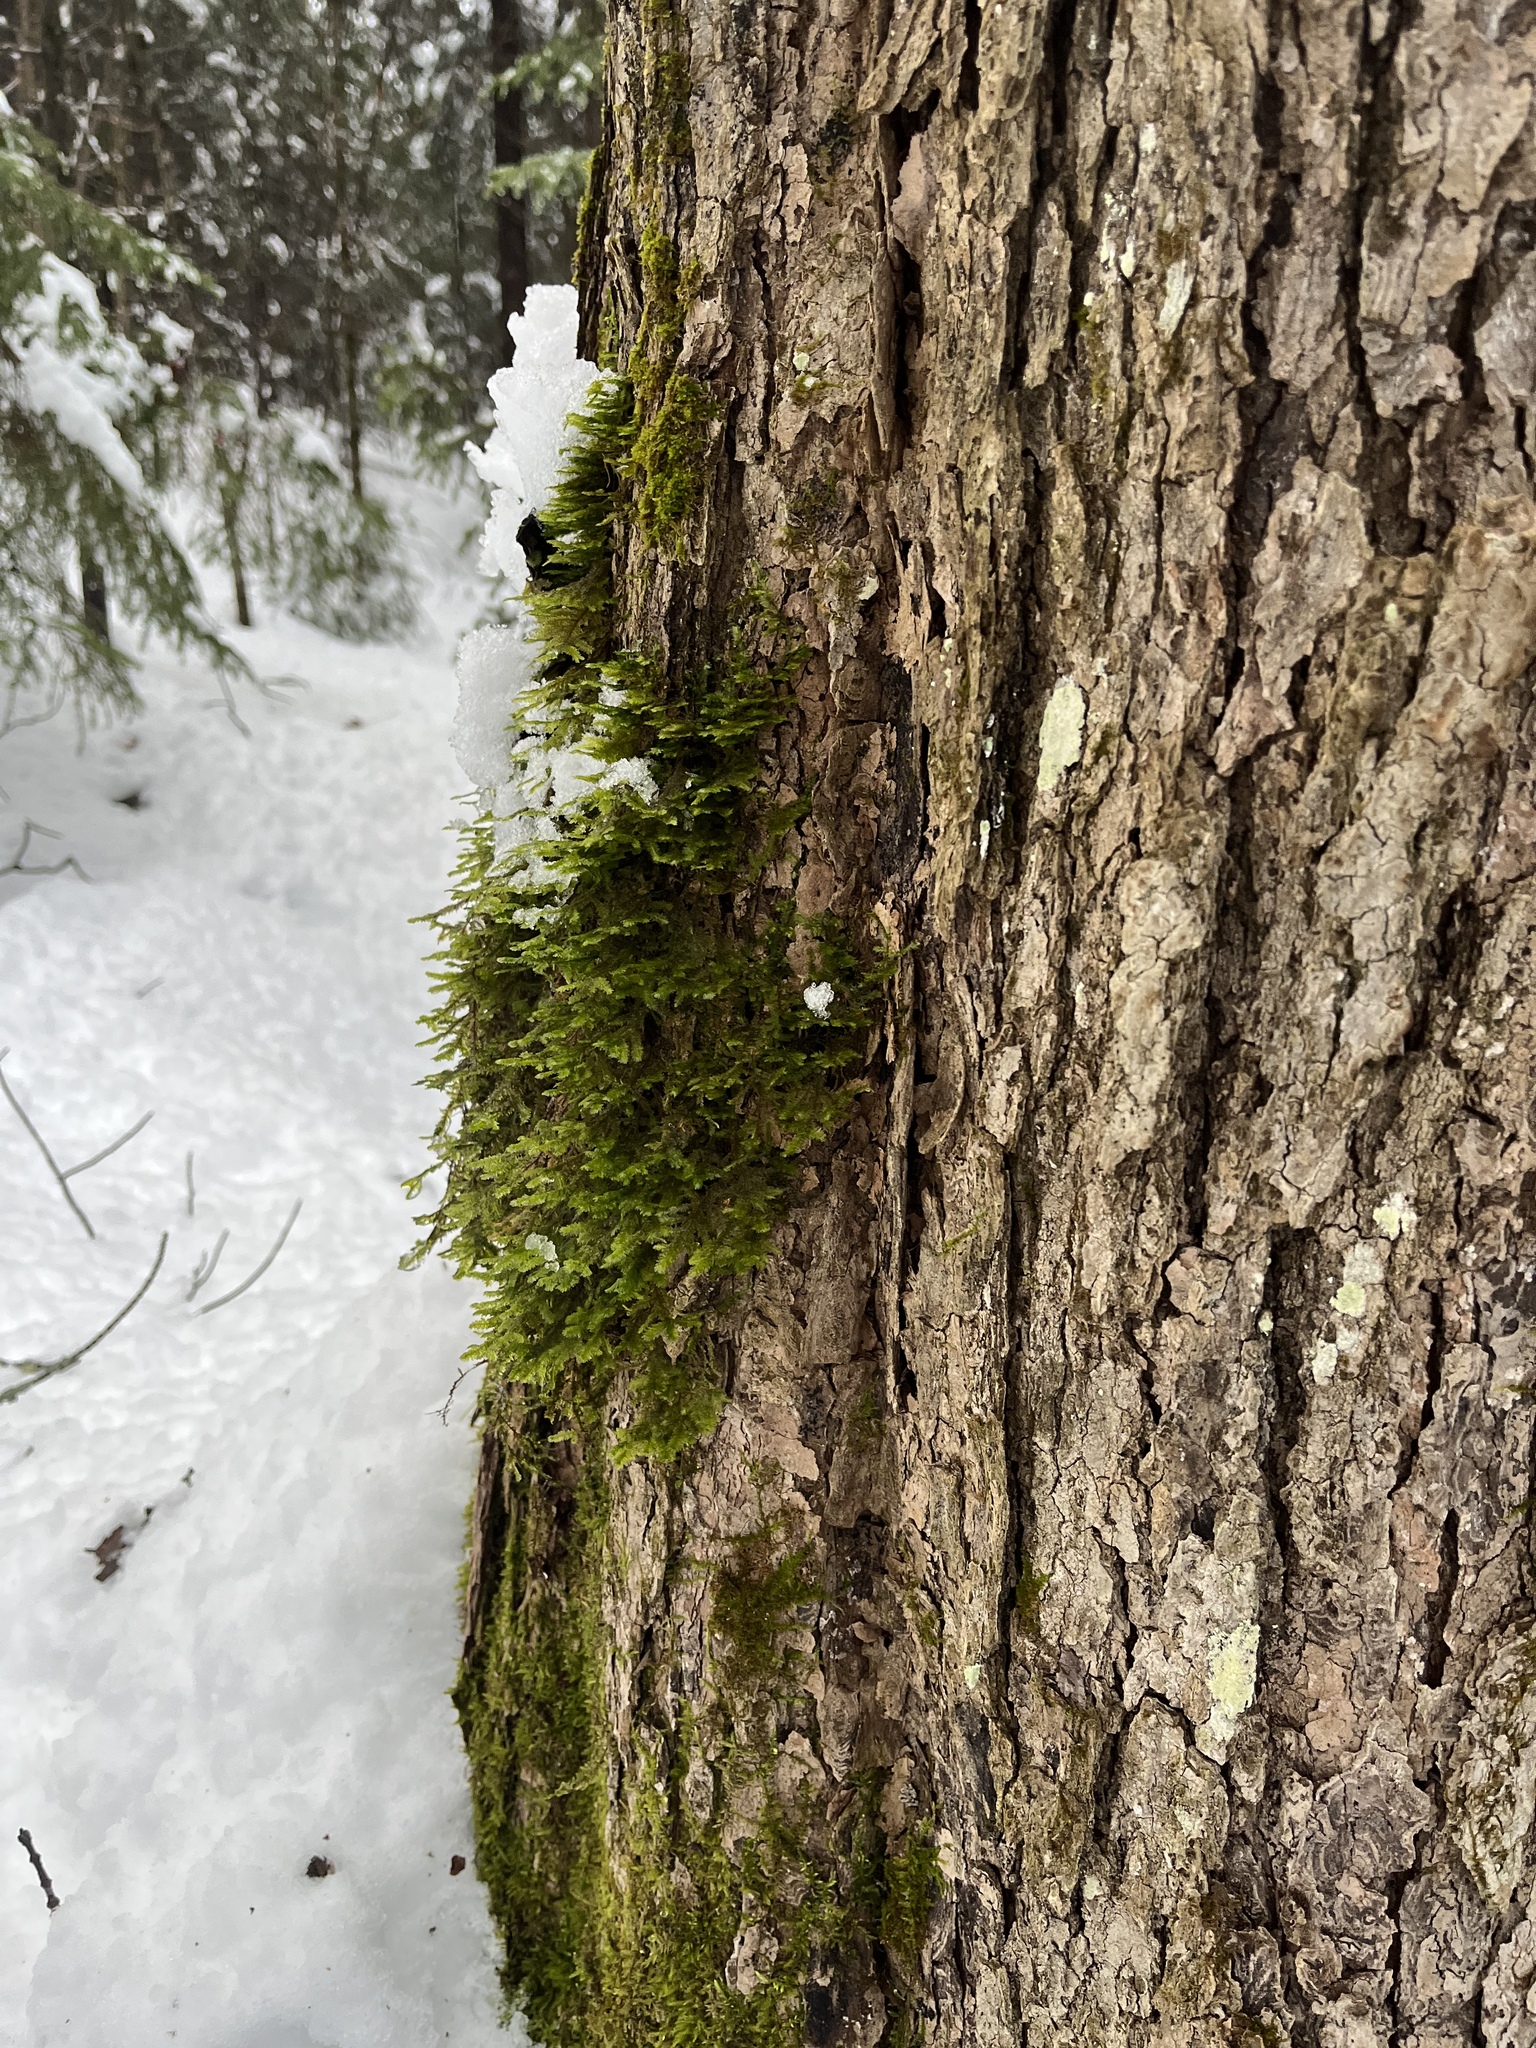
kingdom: Plantae
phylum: Bryophyta
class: Bryopsida
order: Hypnales
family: Neckeraceae
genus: Neckera
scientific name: Neckera pennata
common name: Feathery neckera
